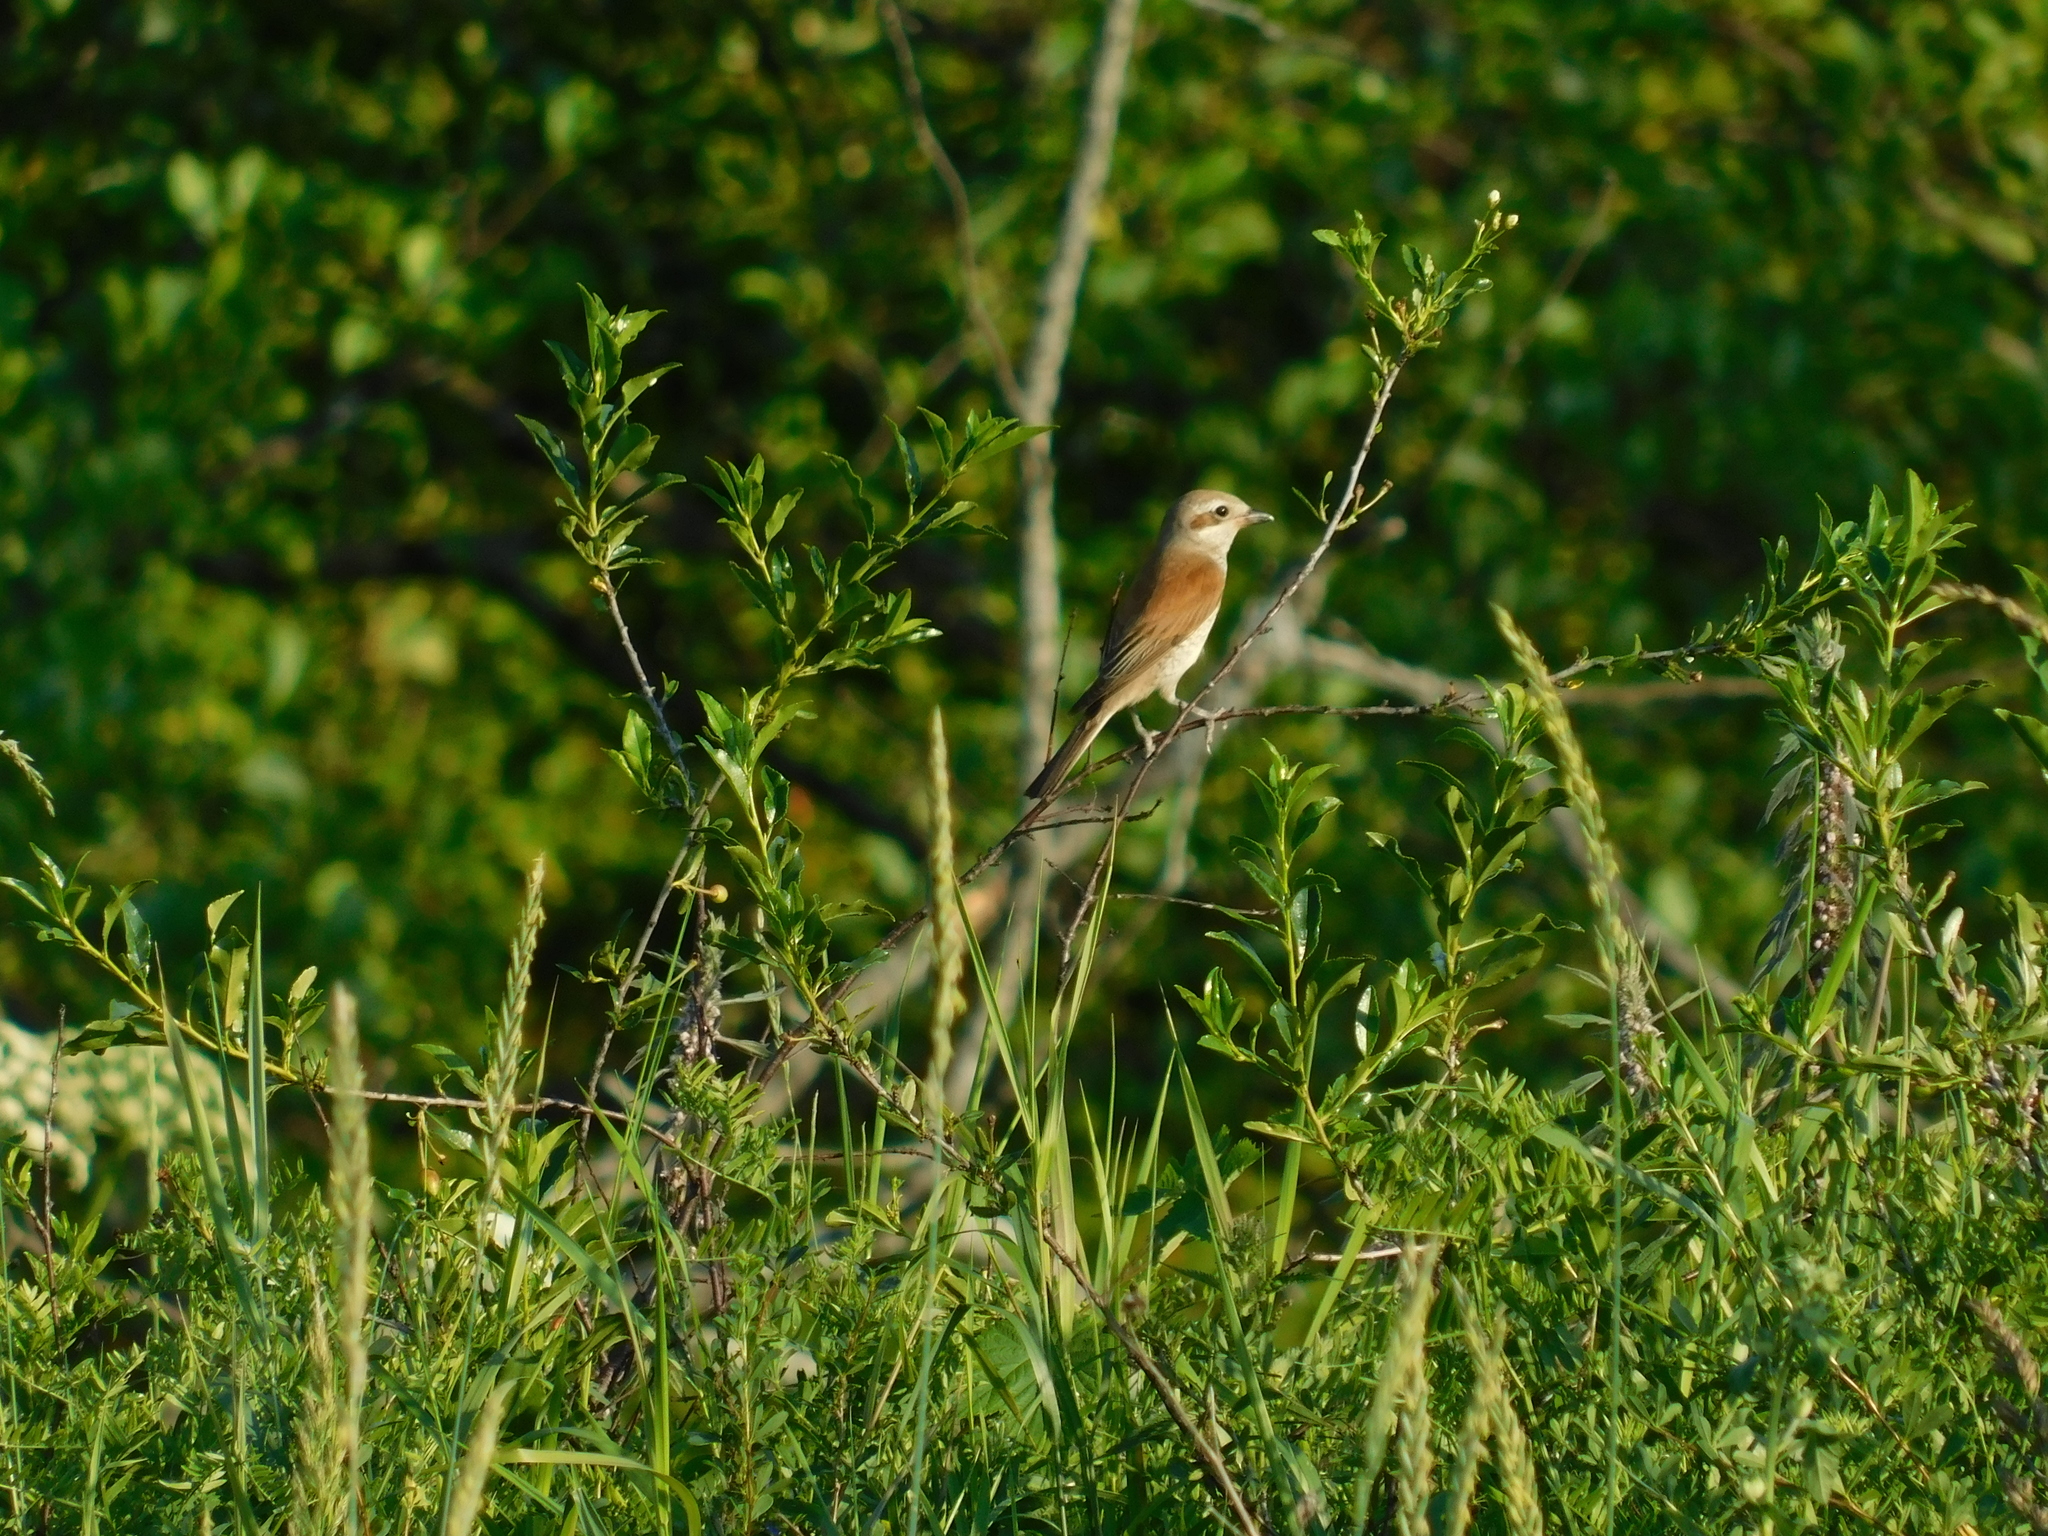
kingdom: Animalia
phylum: Chordata
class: Aves
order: Passeriformes
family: Laniidae
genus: Lanius
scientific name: Lanius collurio
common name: Red-backed shrike
